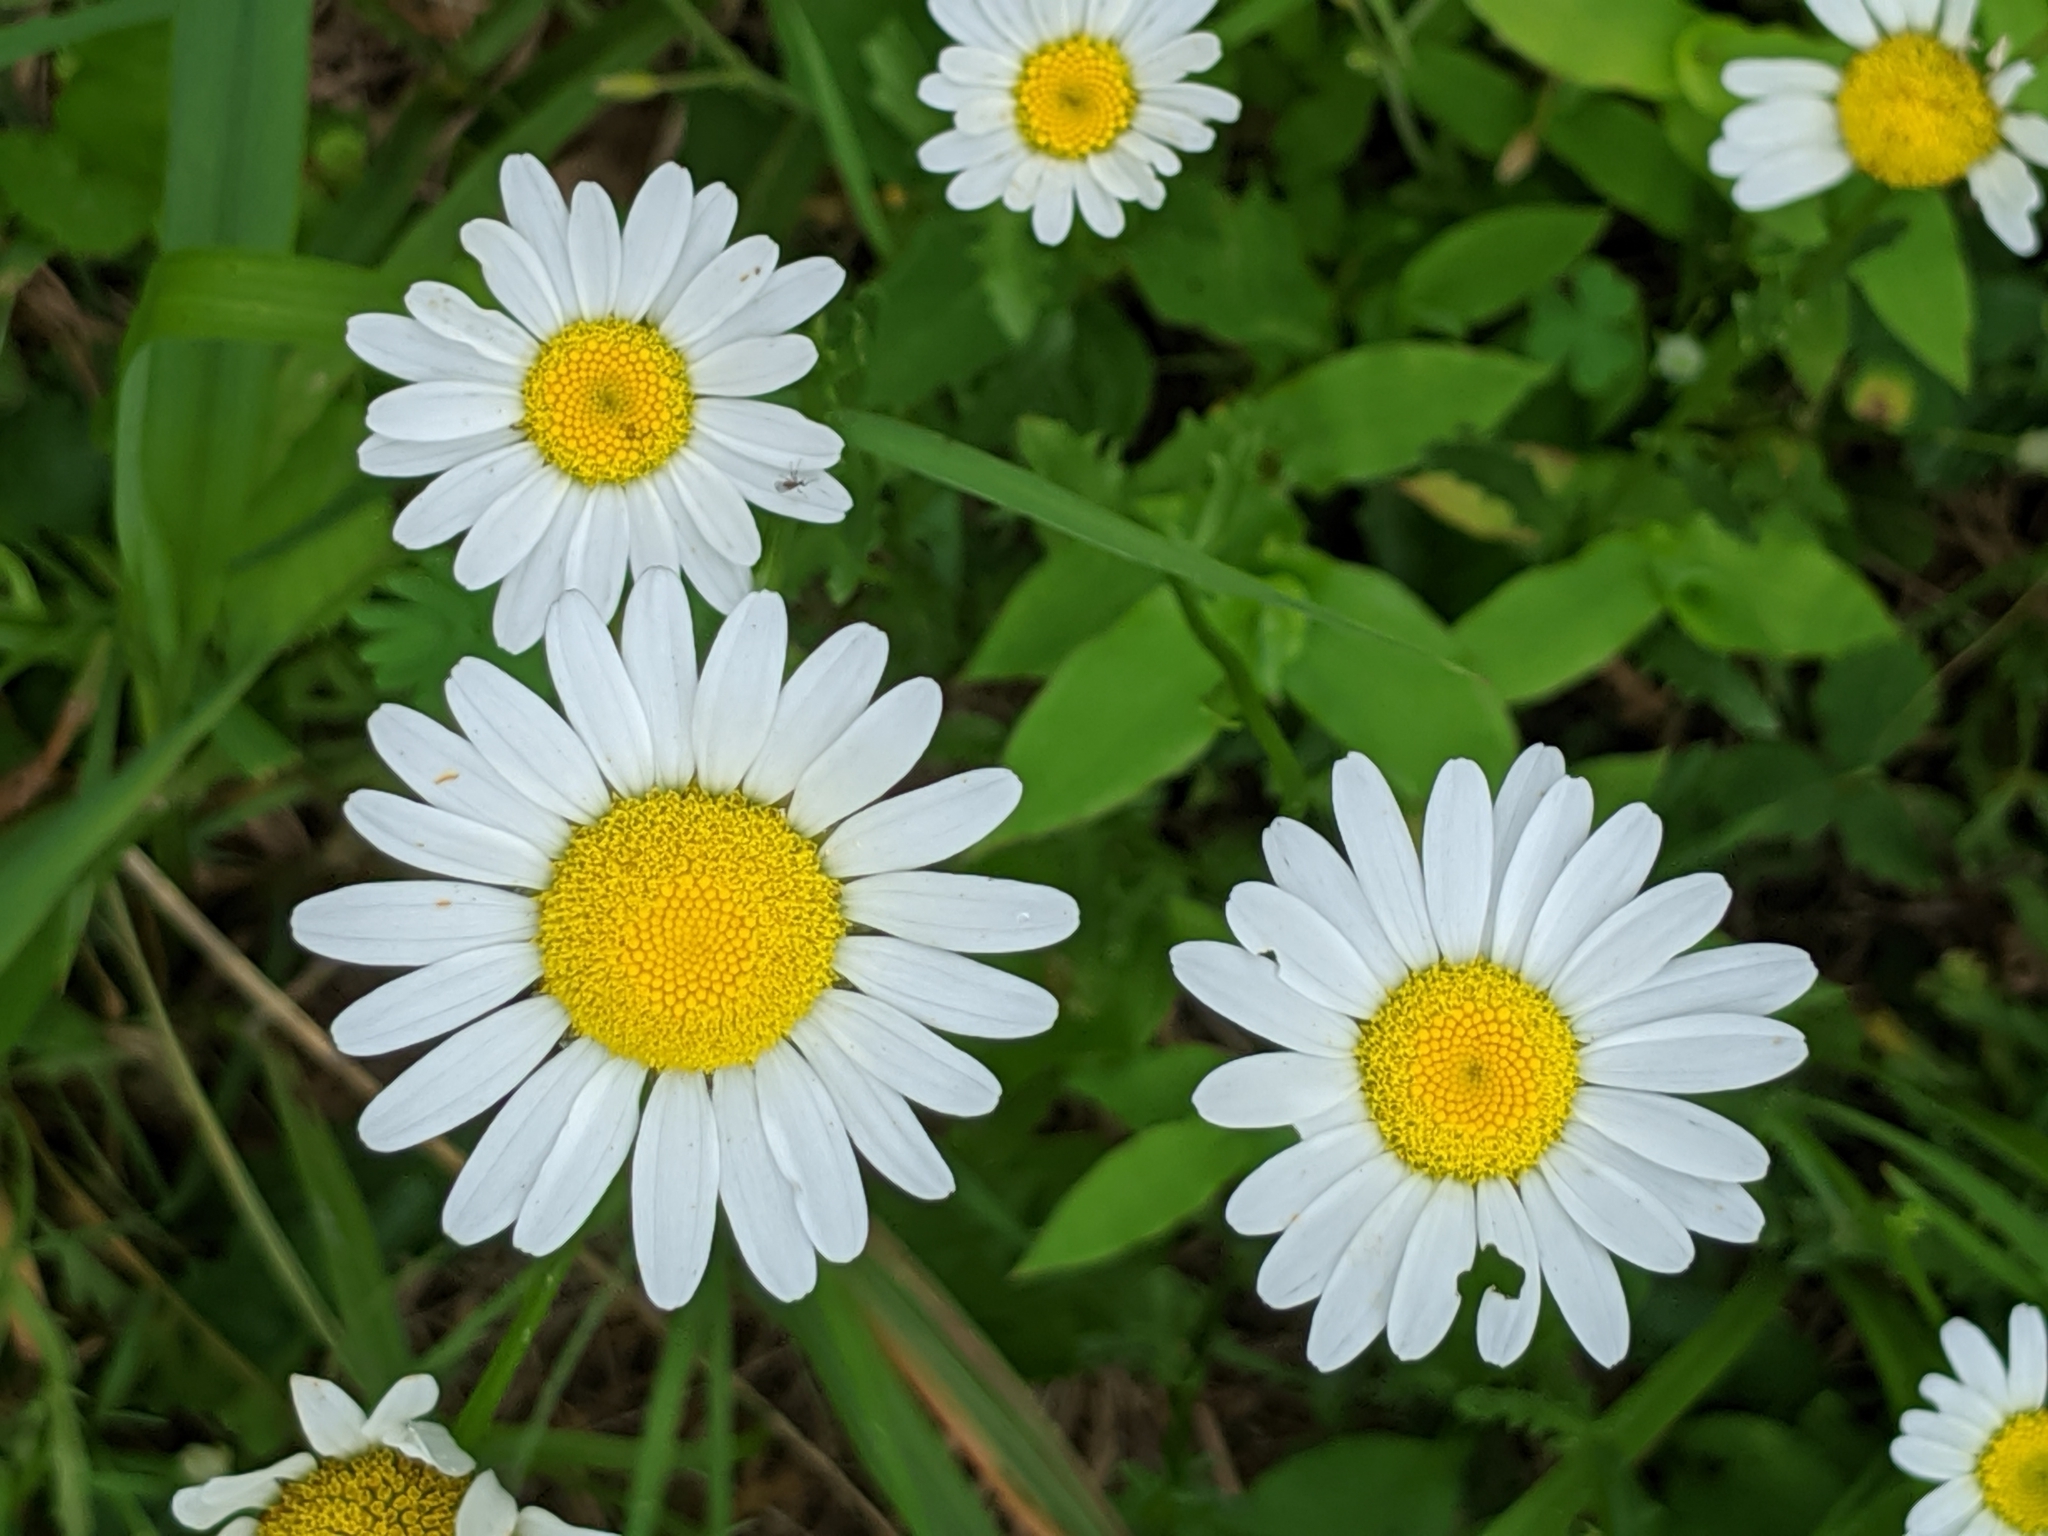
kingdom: Plantae
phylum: Tracheophyta
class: Magnoliopsida
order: Asterales
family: Asteraceae
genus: Leucanthemum
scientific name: Leucanthemum vulgare
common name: Oxeye daisy
